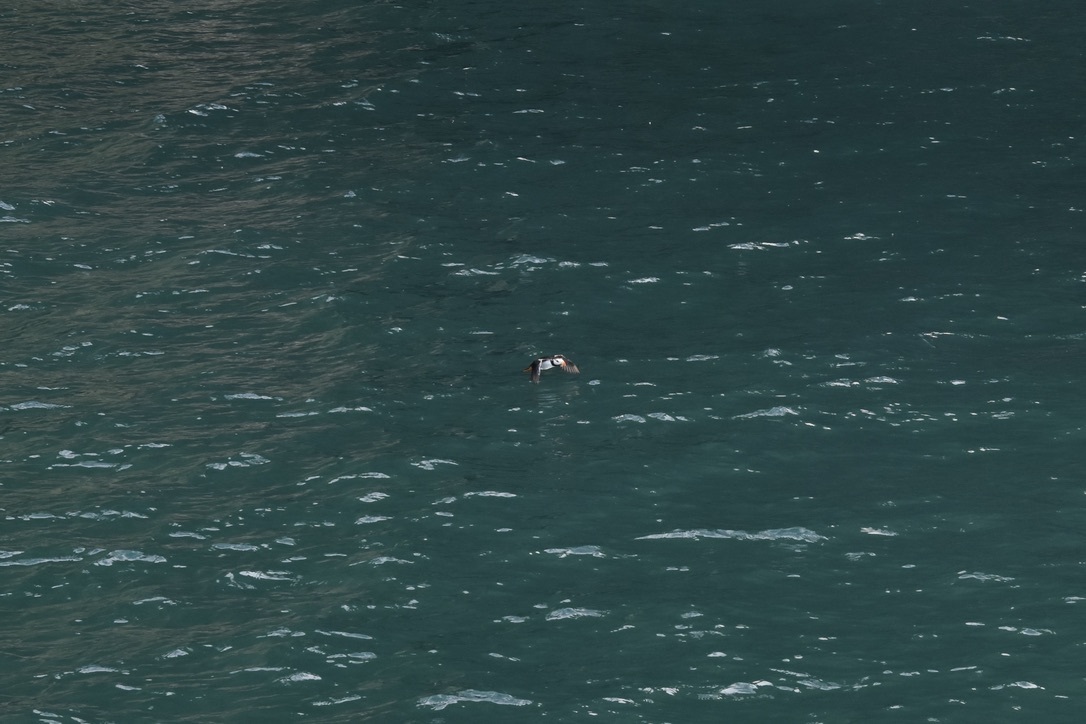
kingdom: Animalia
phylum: Chordata
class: Aves
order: Charadriiformes
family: Alcidae
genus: Fratercula
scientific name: Fratercula corniculata
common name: Horned puffin
